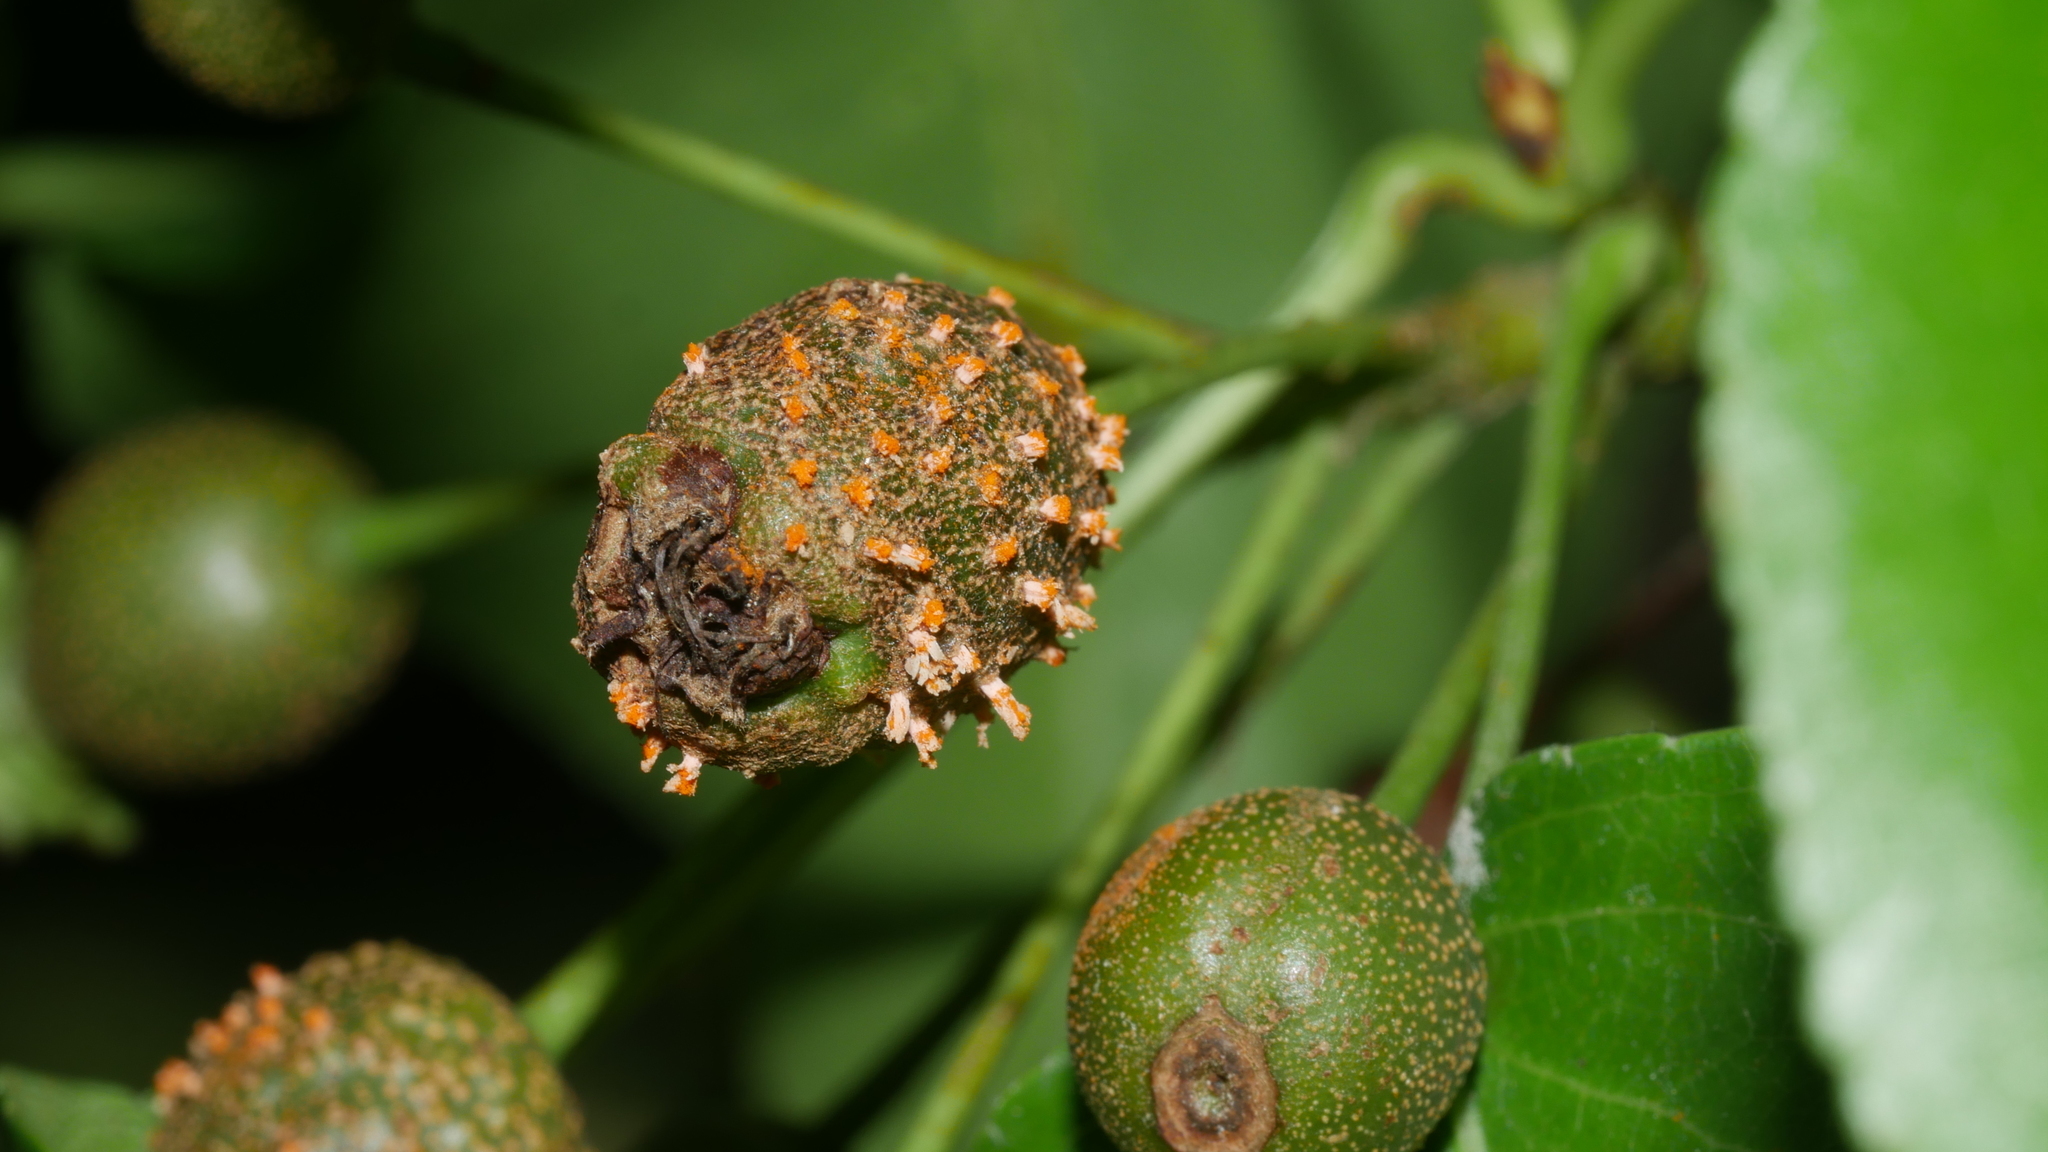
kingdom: Fungi
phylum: Basidiomycota
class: Pucciniomycetes
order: Pucciniales
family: Gymnosporangiaceae
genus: Gymnosporangium
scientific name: Gymnosporangium clavipes
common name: Quince rust
